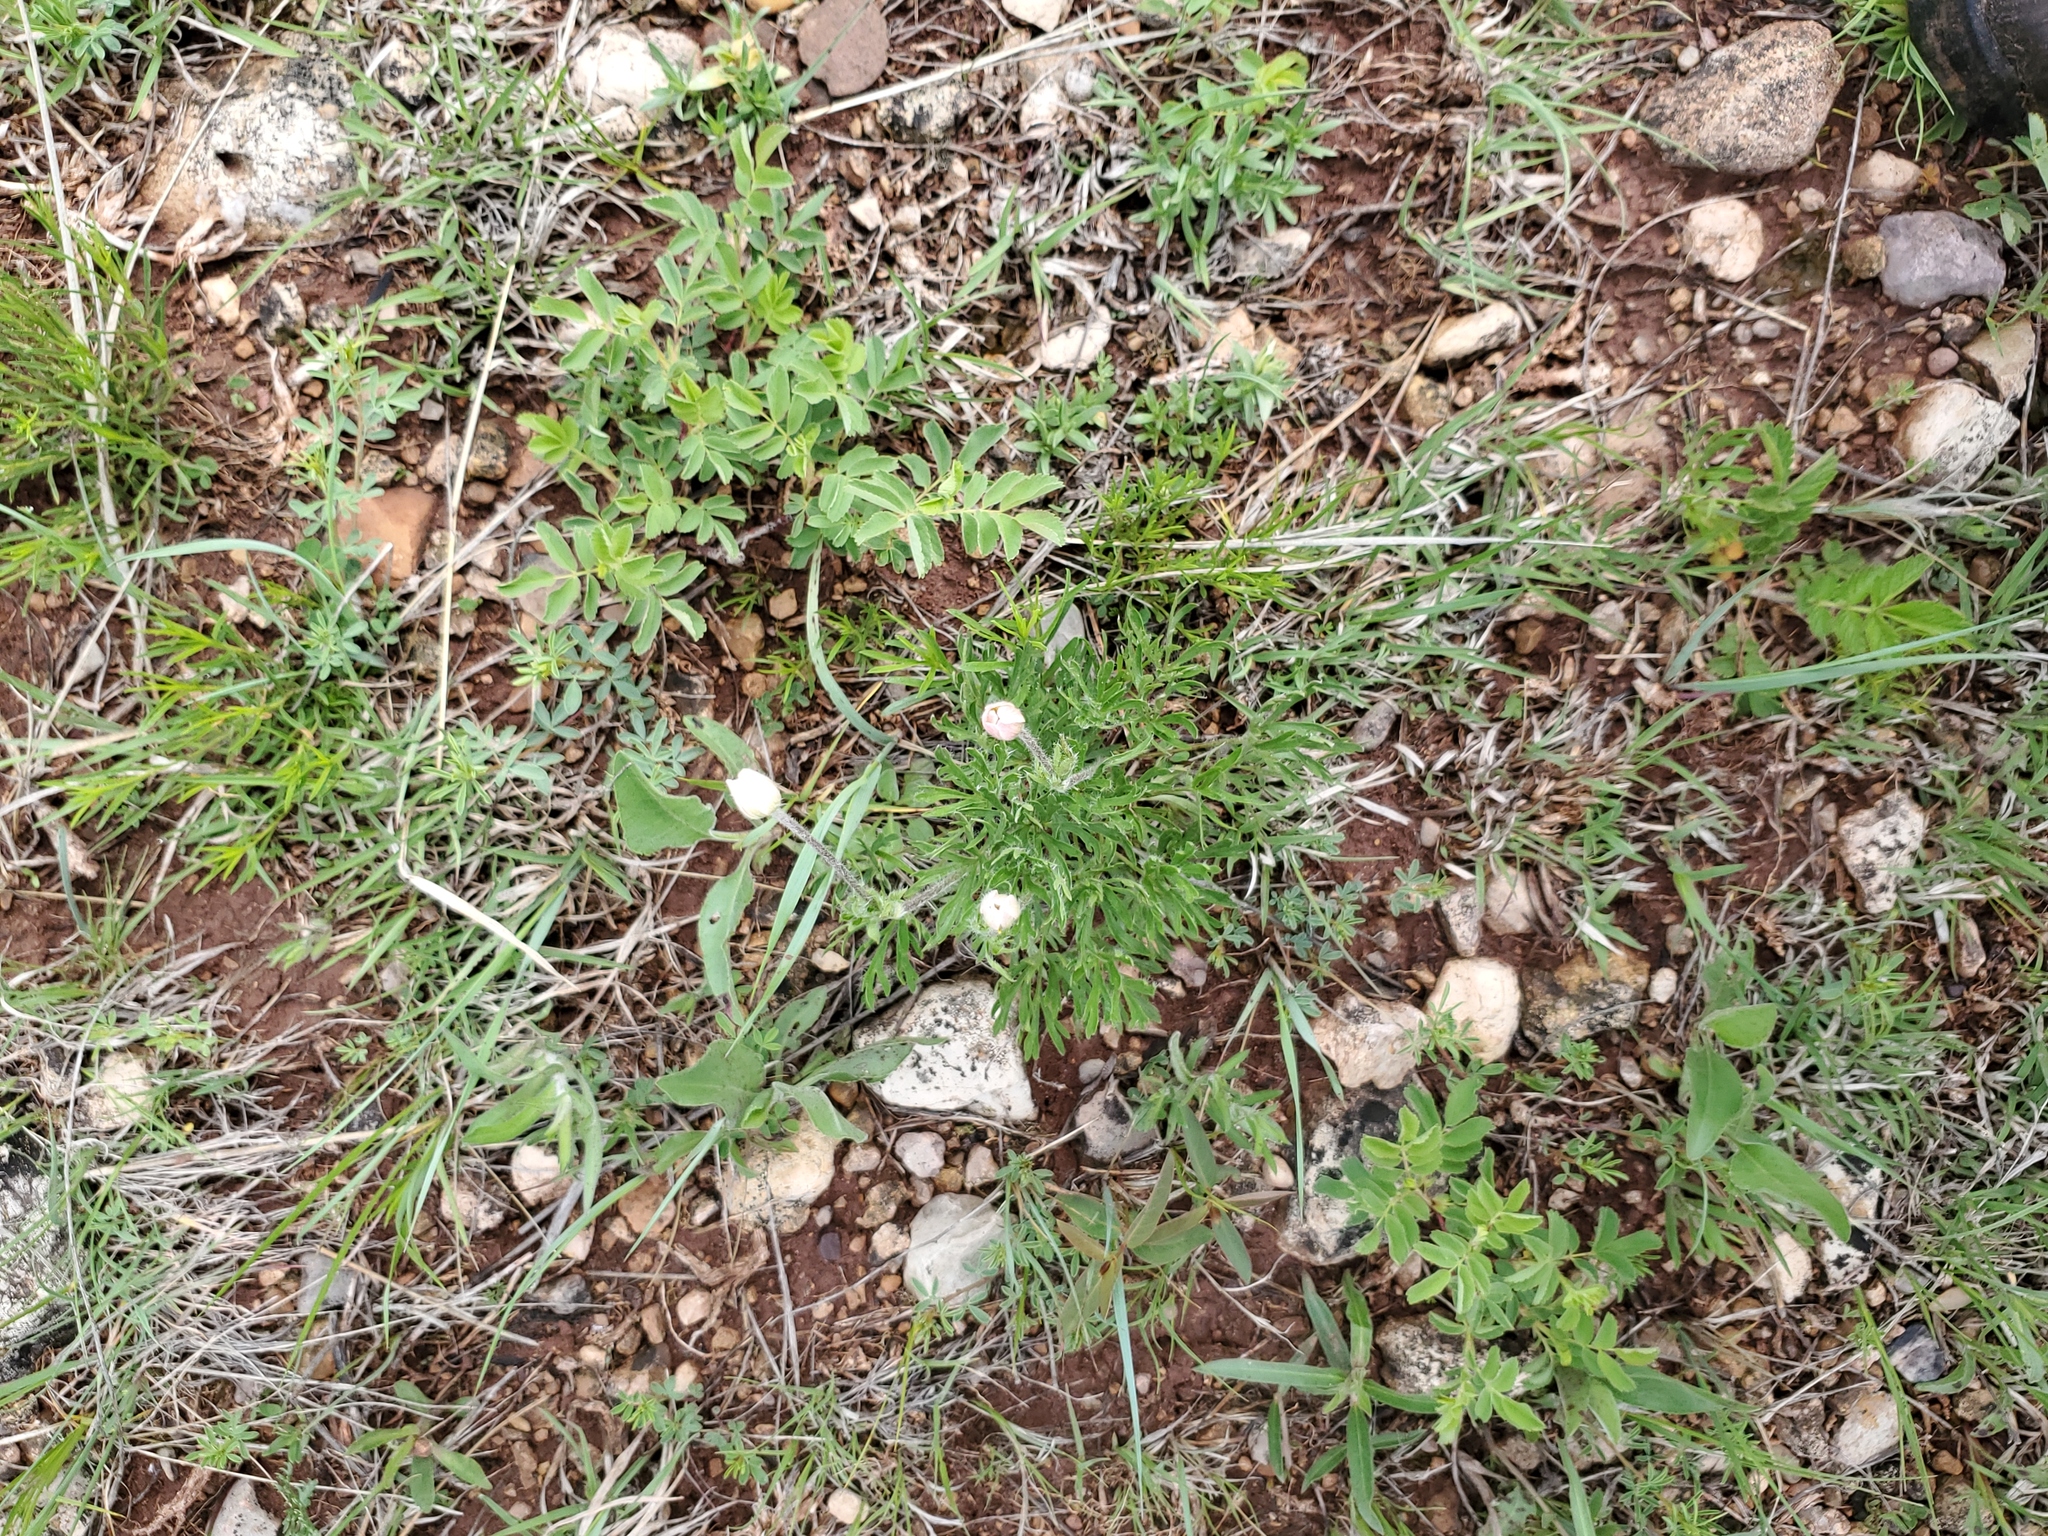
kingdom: Plantae
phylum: Tracheophyta
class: Magnoliopsida
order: Ranunculales
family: Ranunculaceae
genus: Anemone
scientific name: Anemone multifida
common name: Bird's-foot anemone
